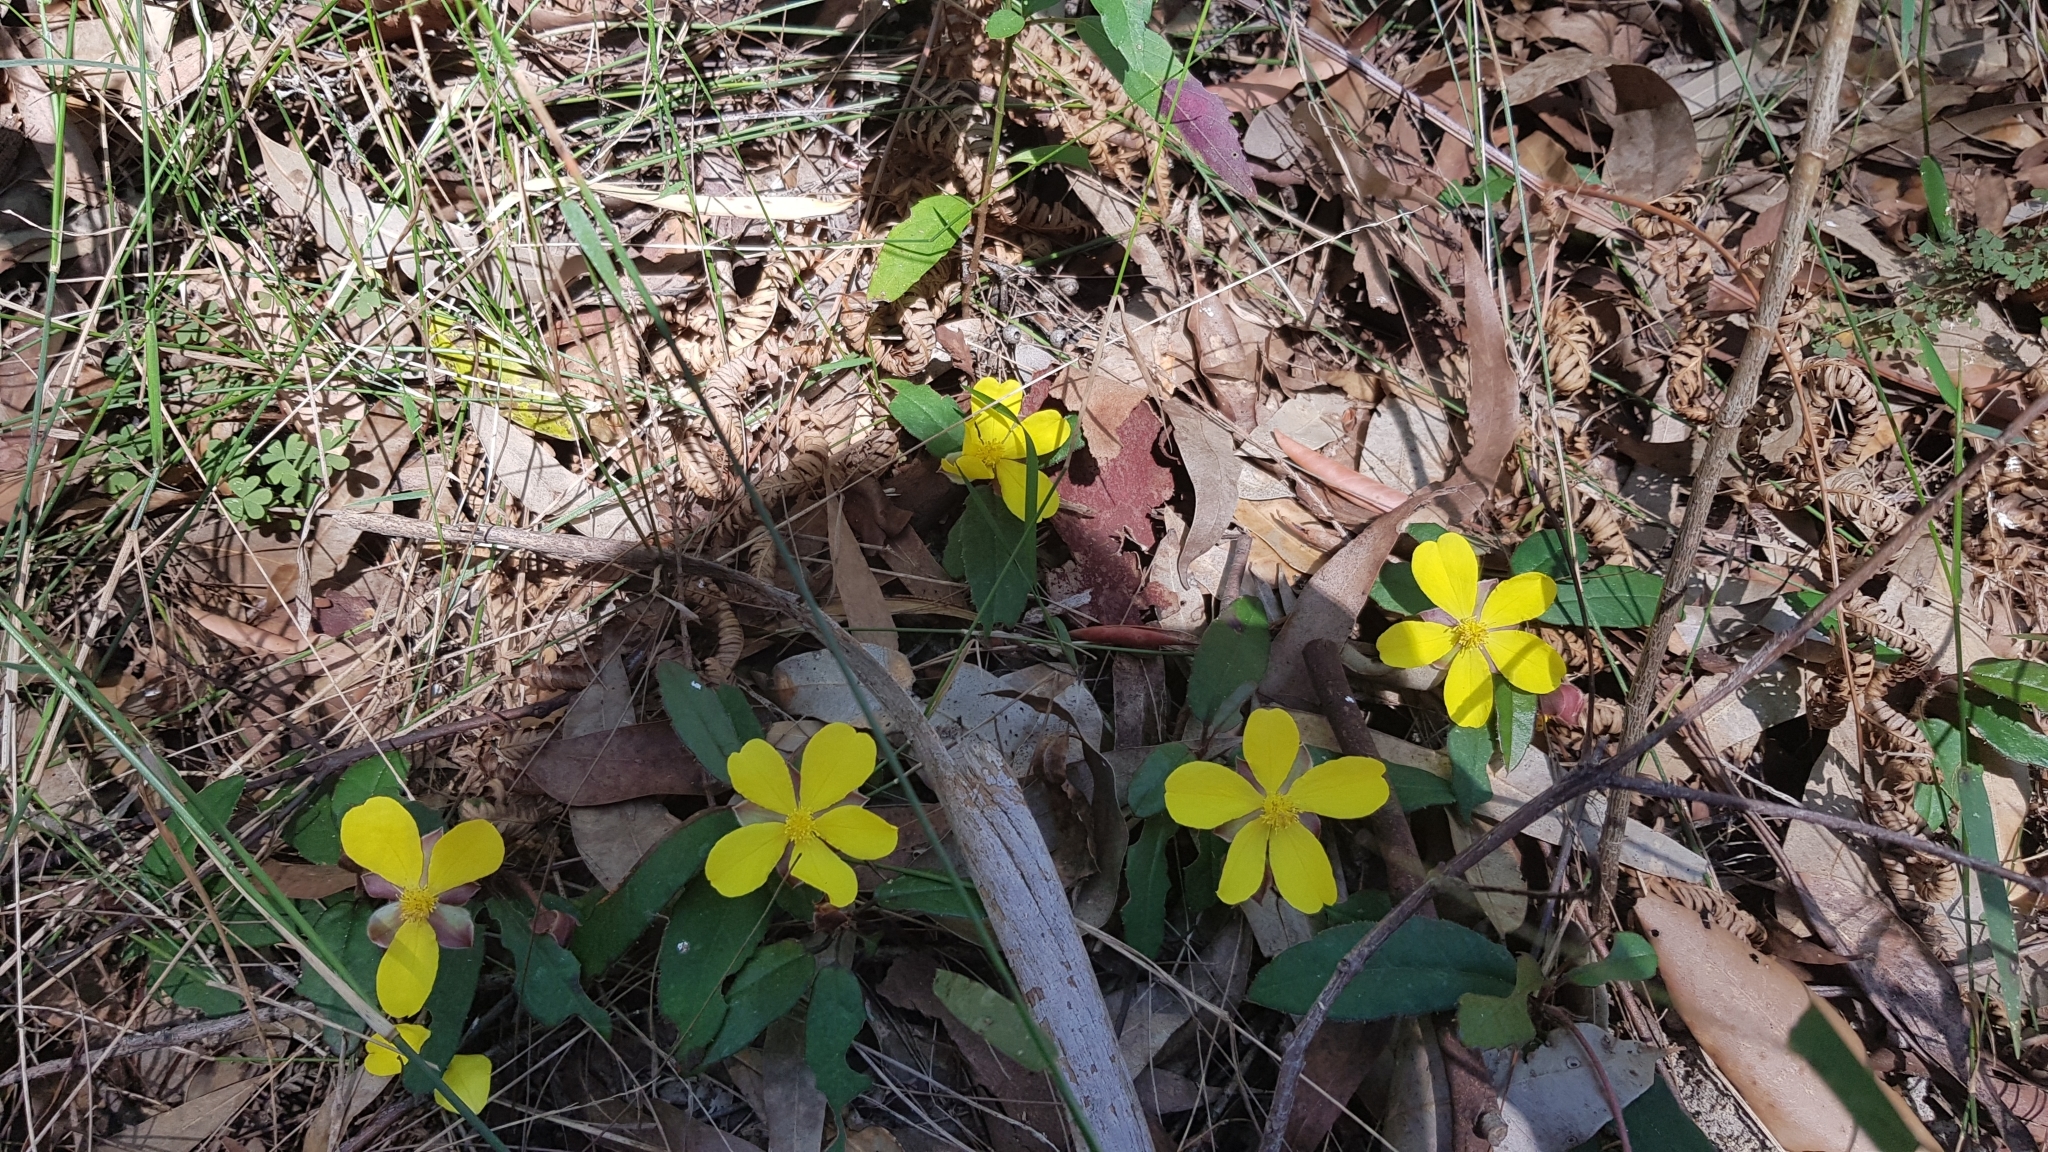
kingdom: Plantae
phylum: Tracheophyta
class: Magnoliopsida
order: Dilleniales
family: Dilleniaceae
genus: Hibbertia
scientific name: Hibbertia dentata
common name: Trailing guinea-flower
